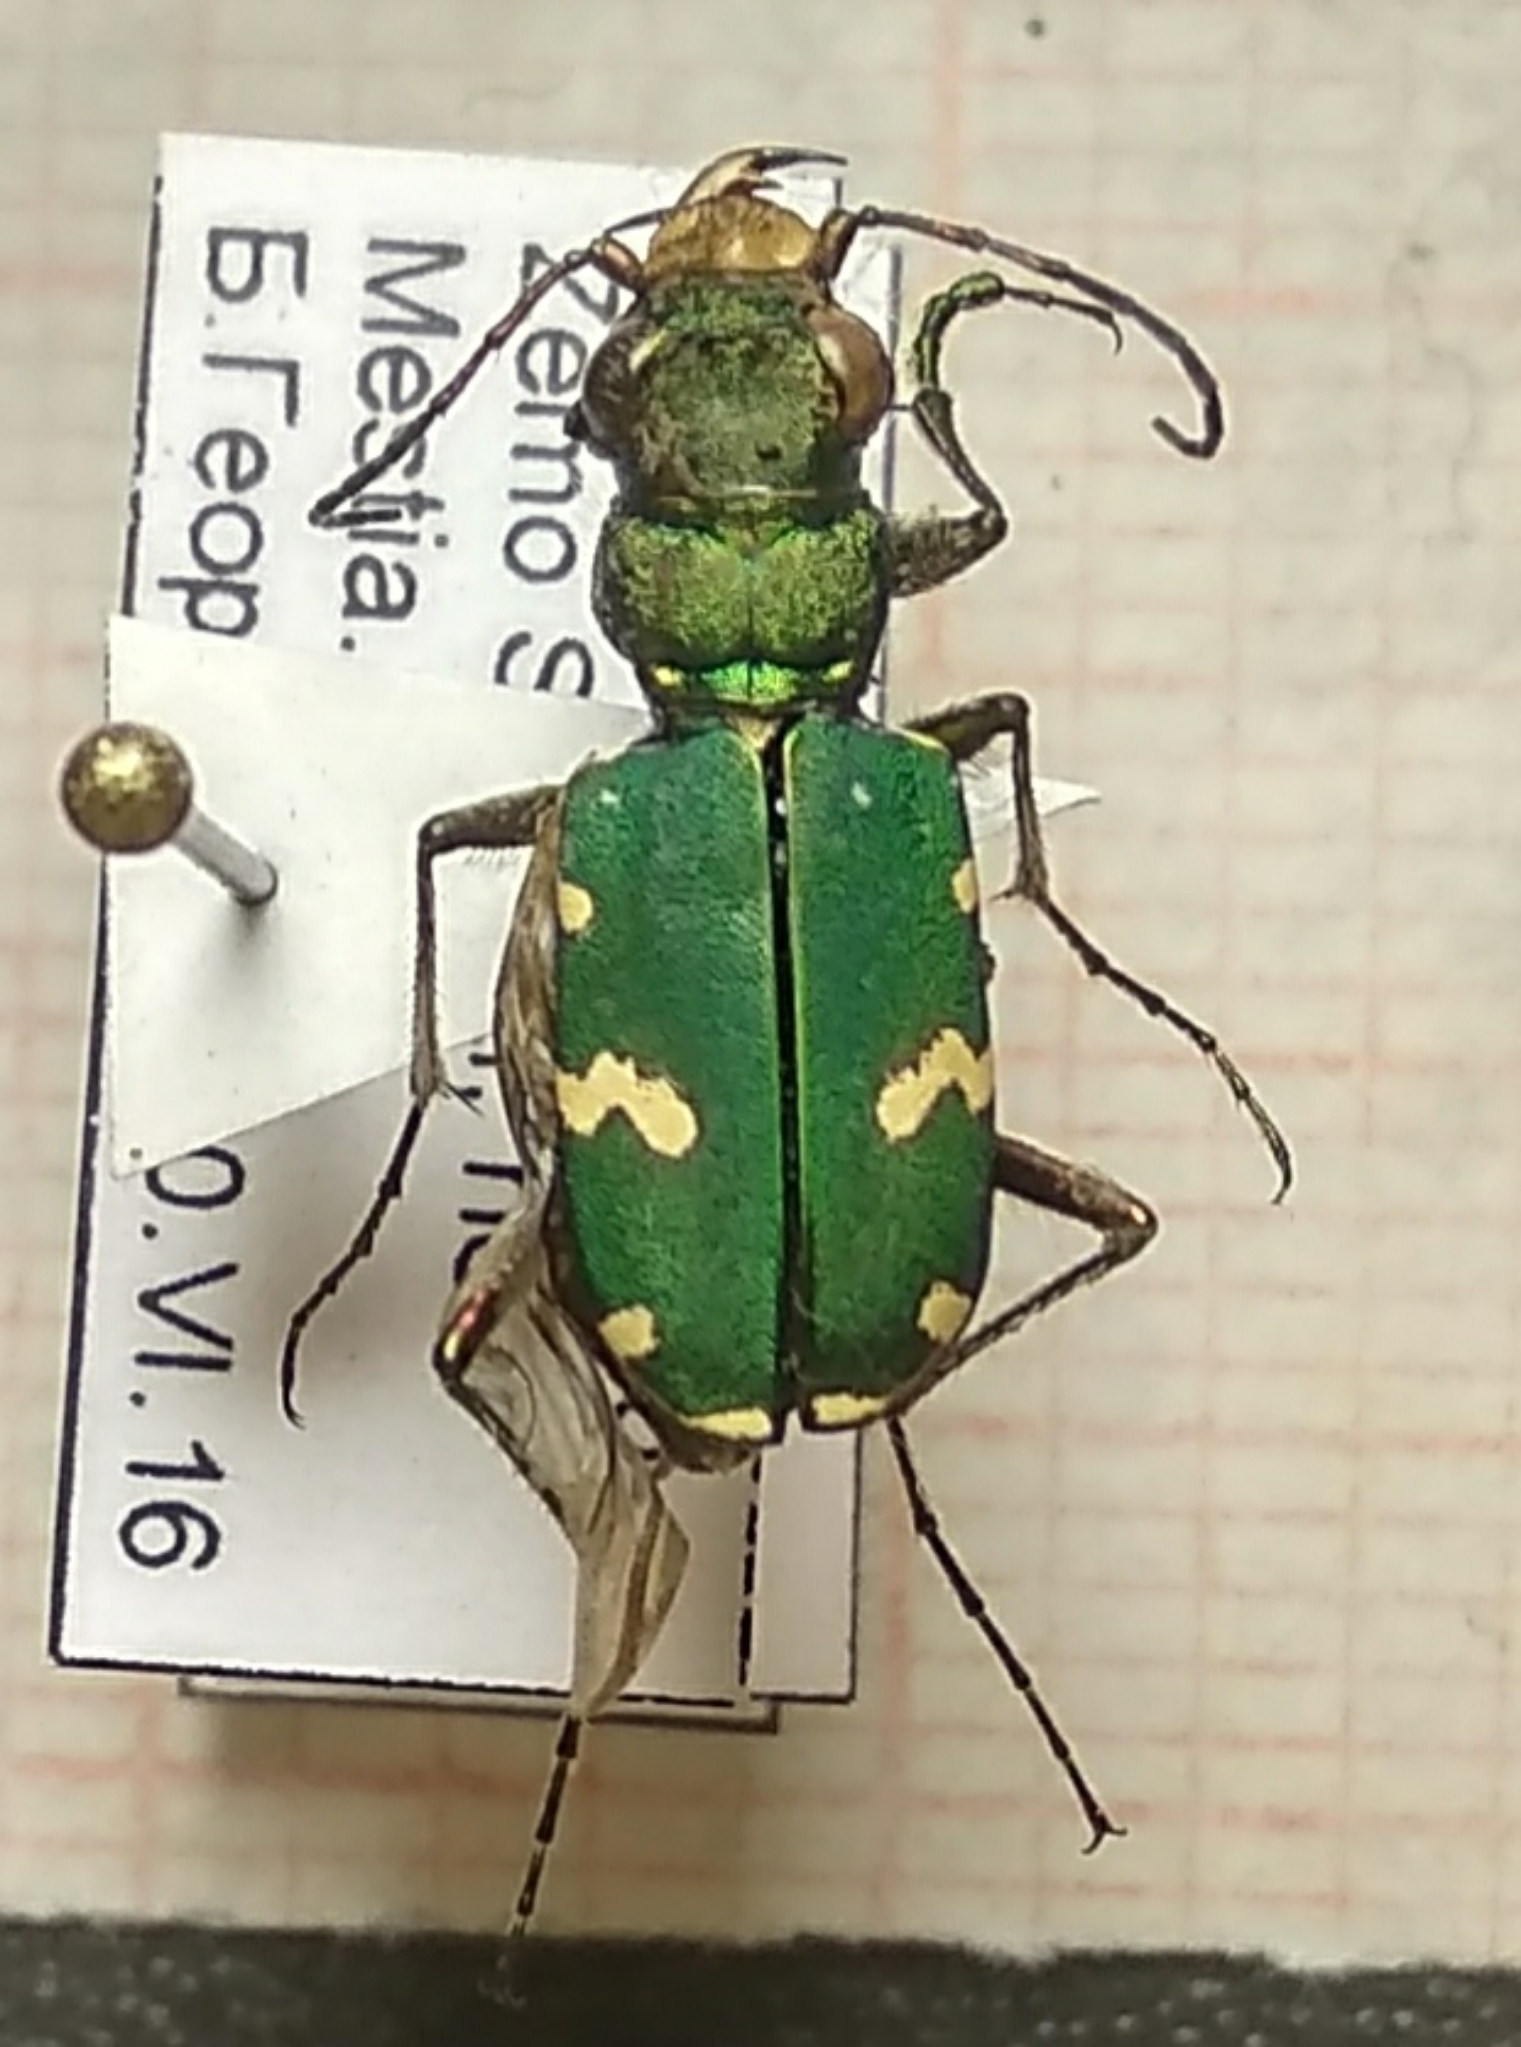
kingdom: Animalia
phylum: Arthropoda
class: Insecta
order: Coleoptera
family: Carabidae
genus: Cicindela
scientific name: Cicindela desertorum
